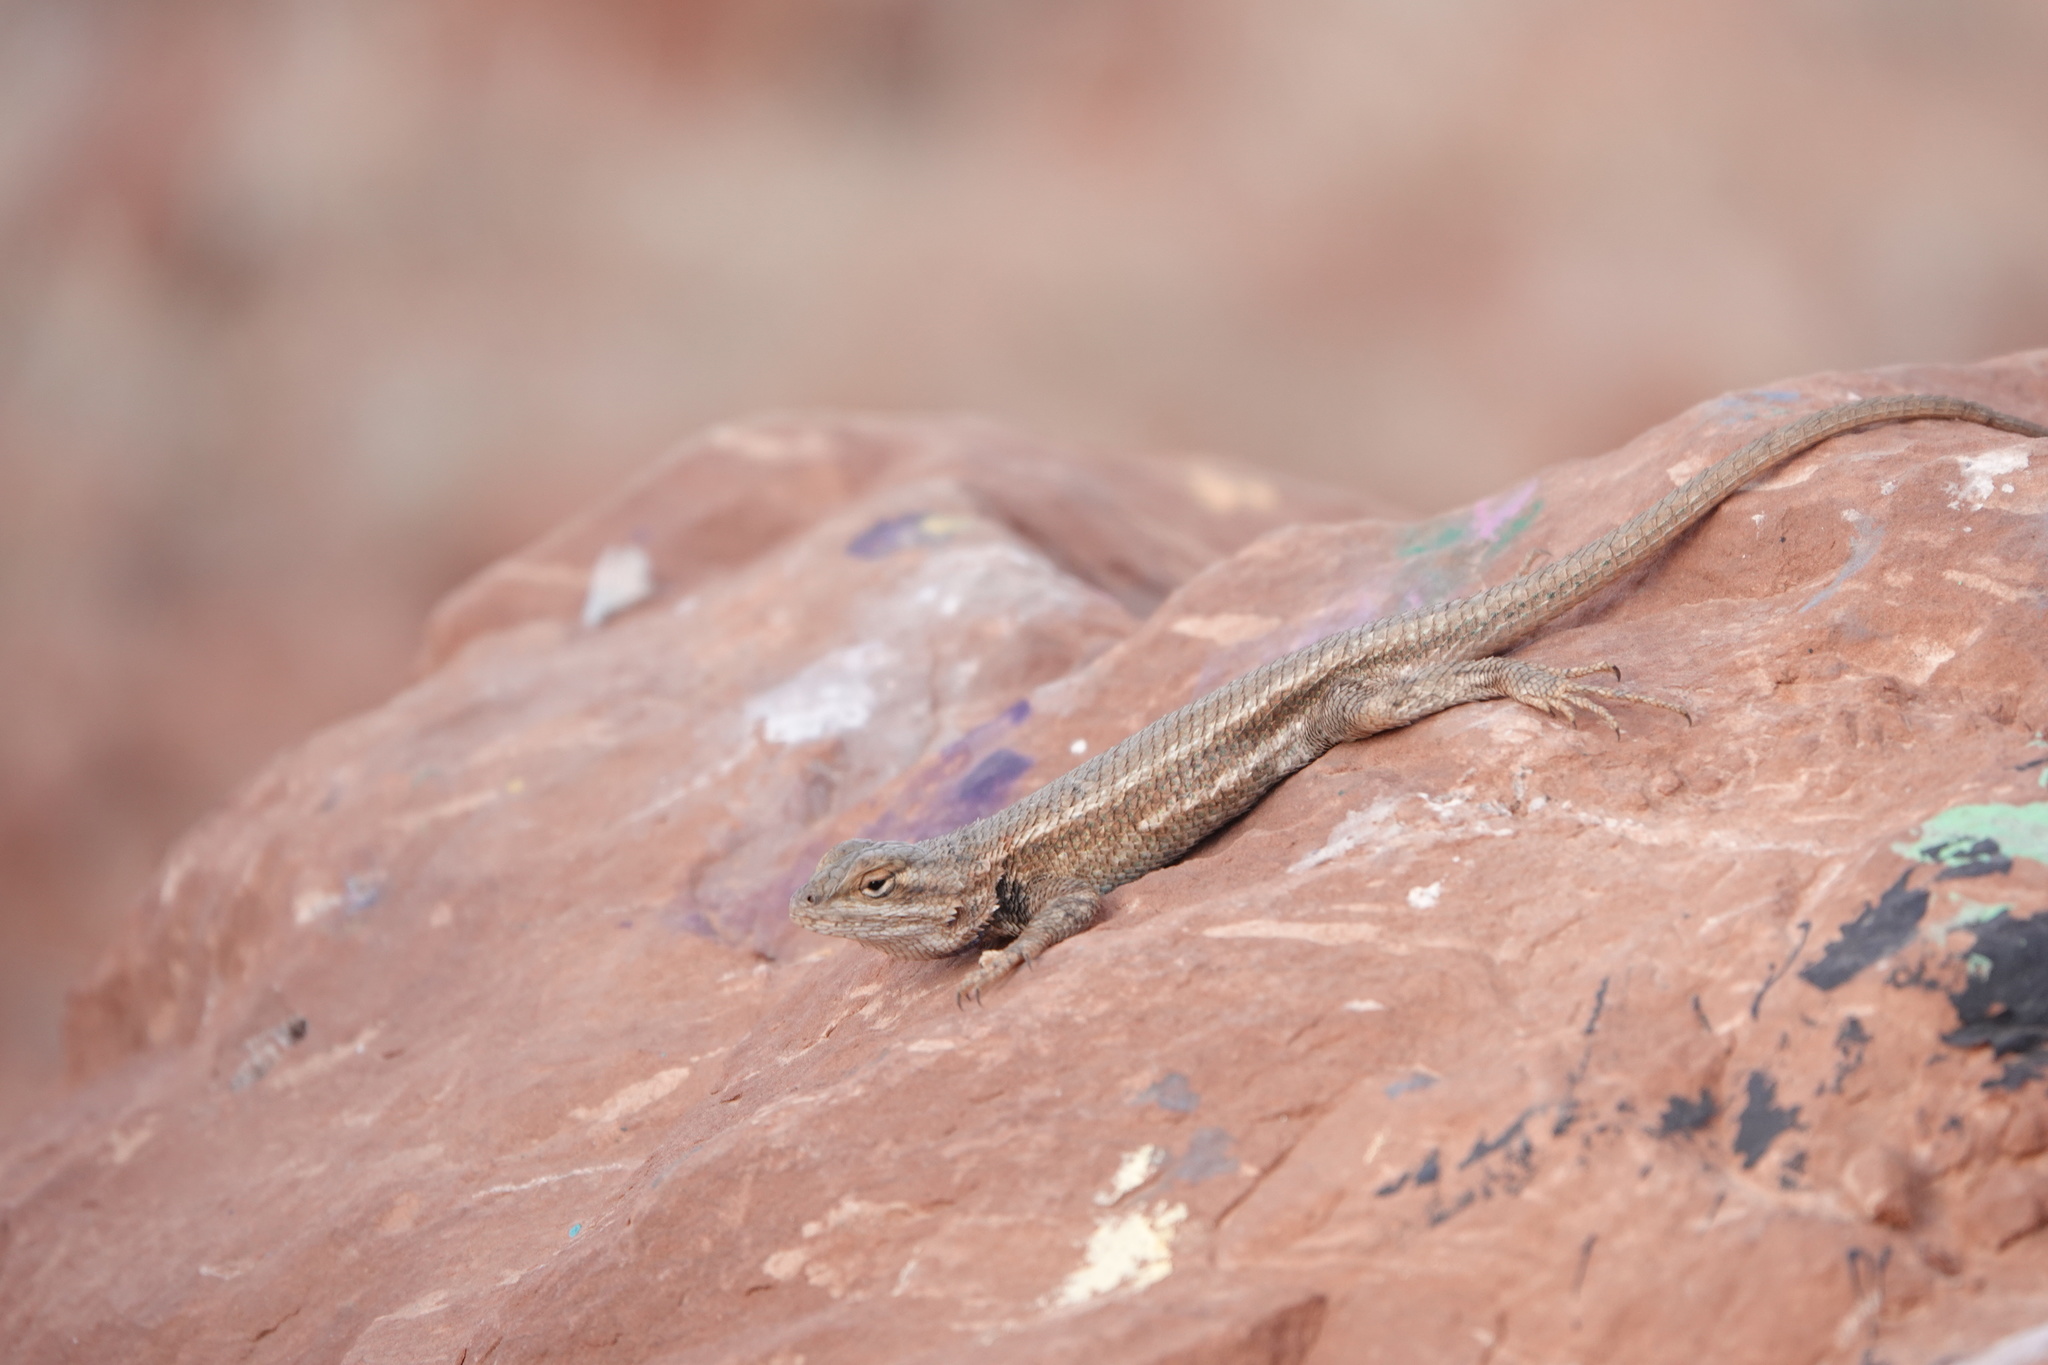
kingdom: Animalia
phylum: Chordata
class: Squamata
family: Phrynosomatidae
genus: Sceloporus
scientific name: Sceloporus tristichus
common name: Plateau fence lizard
